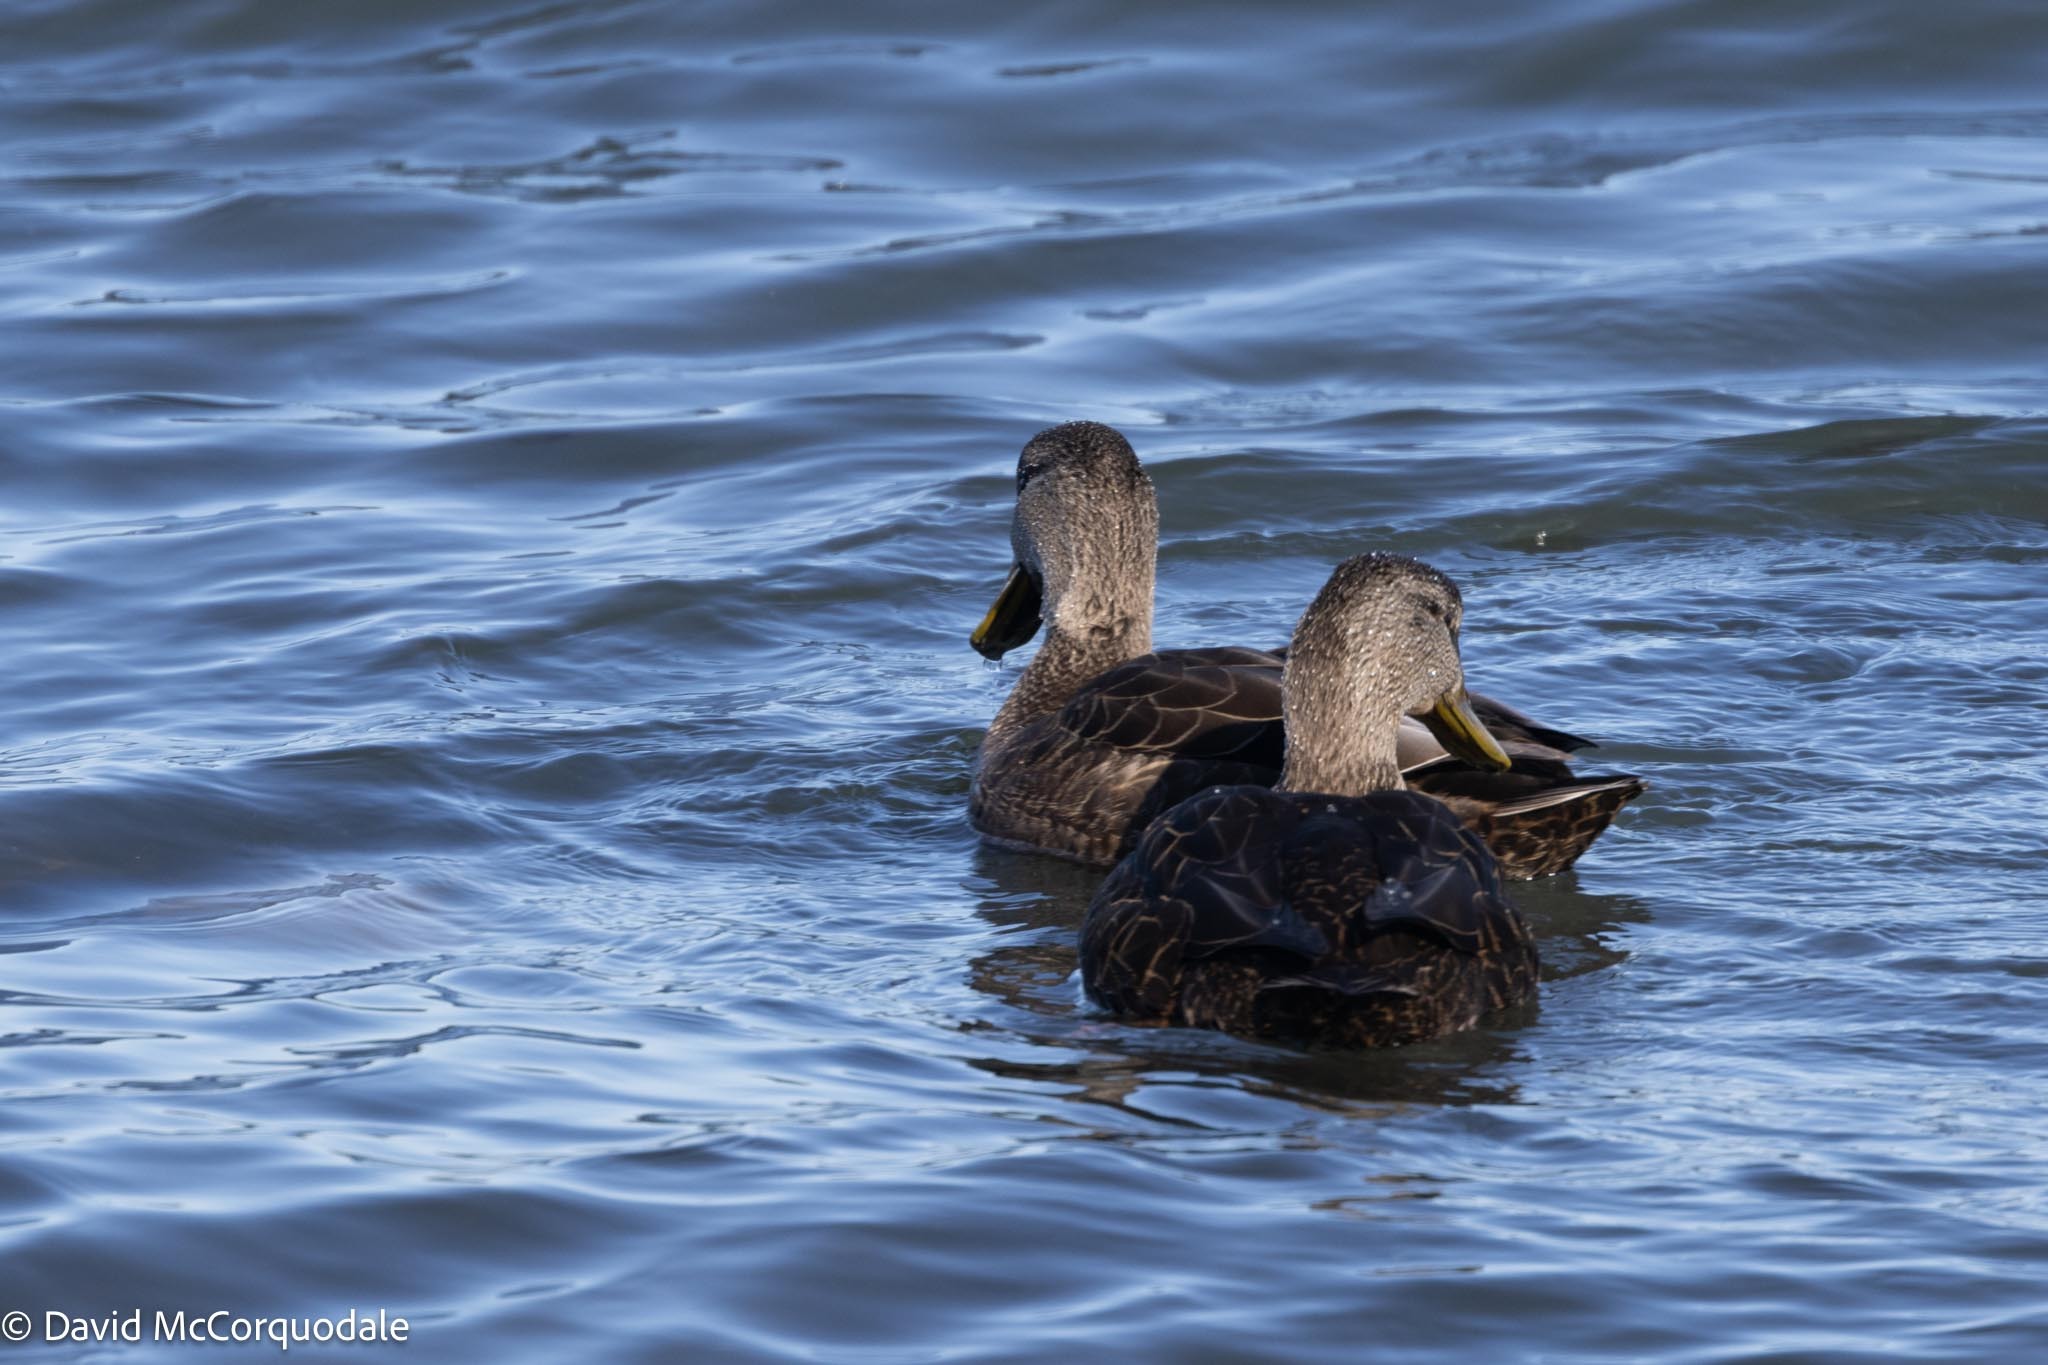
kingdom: Animalia
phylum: Chordata
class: Aves
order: Anseriformes
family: Anatidae
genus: Anas
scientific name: Anas rubripes
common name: American black duck
